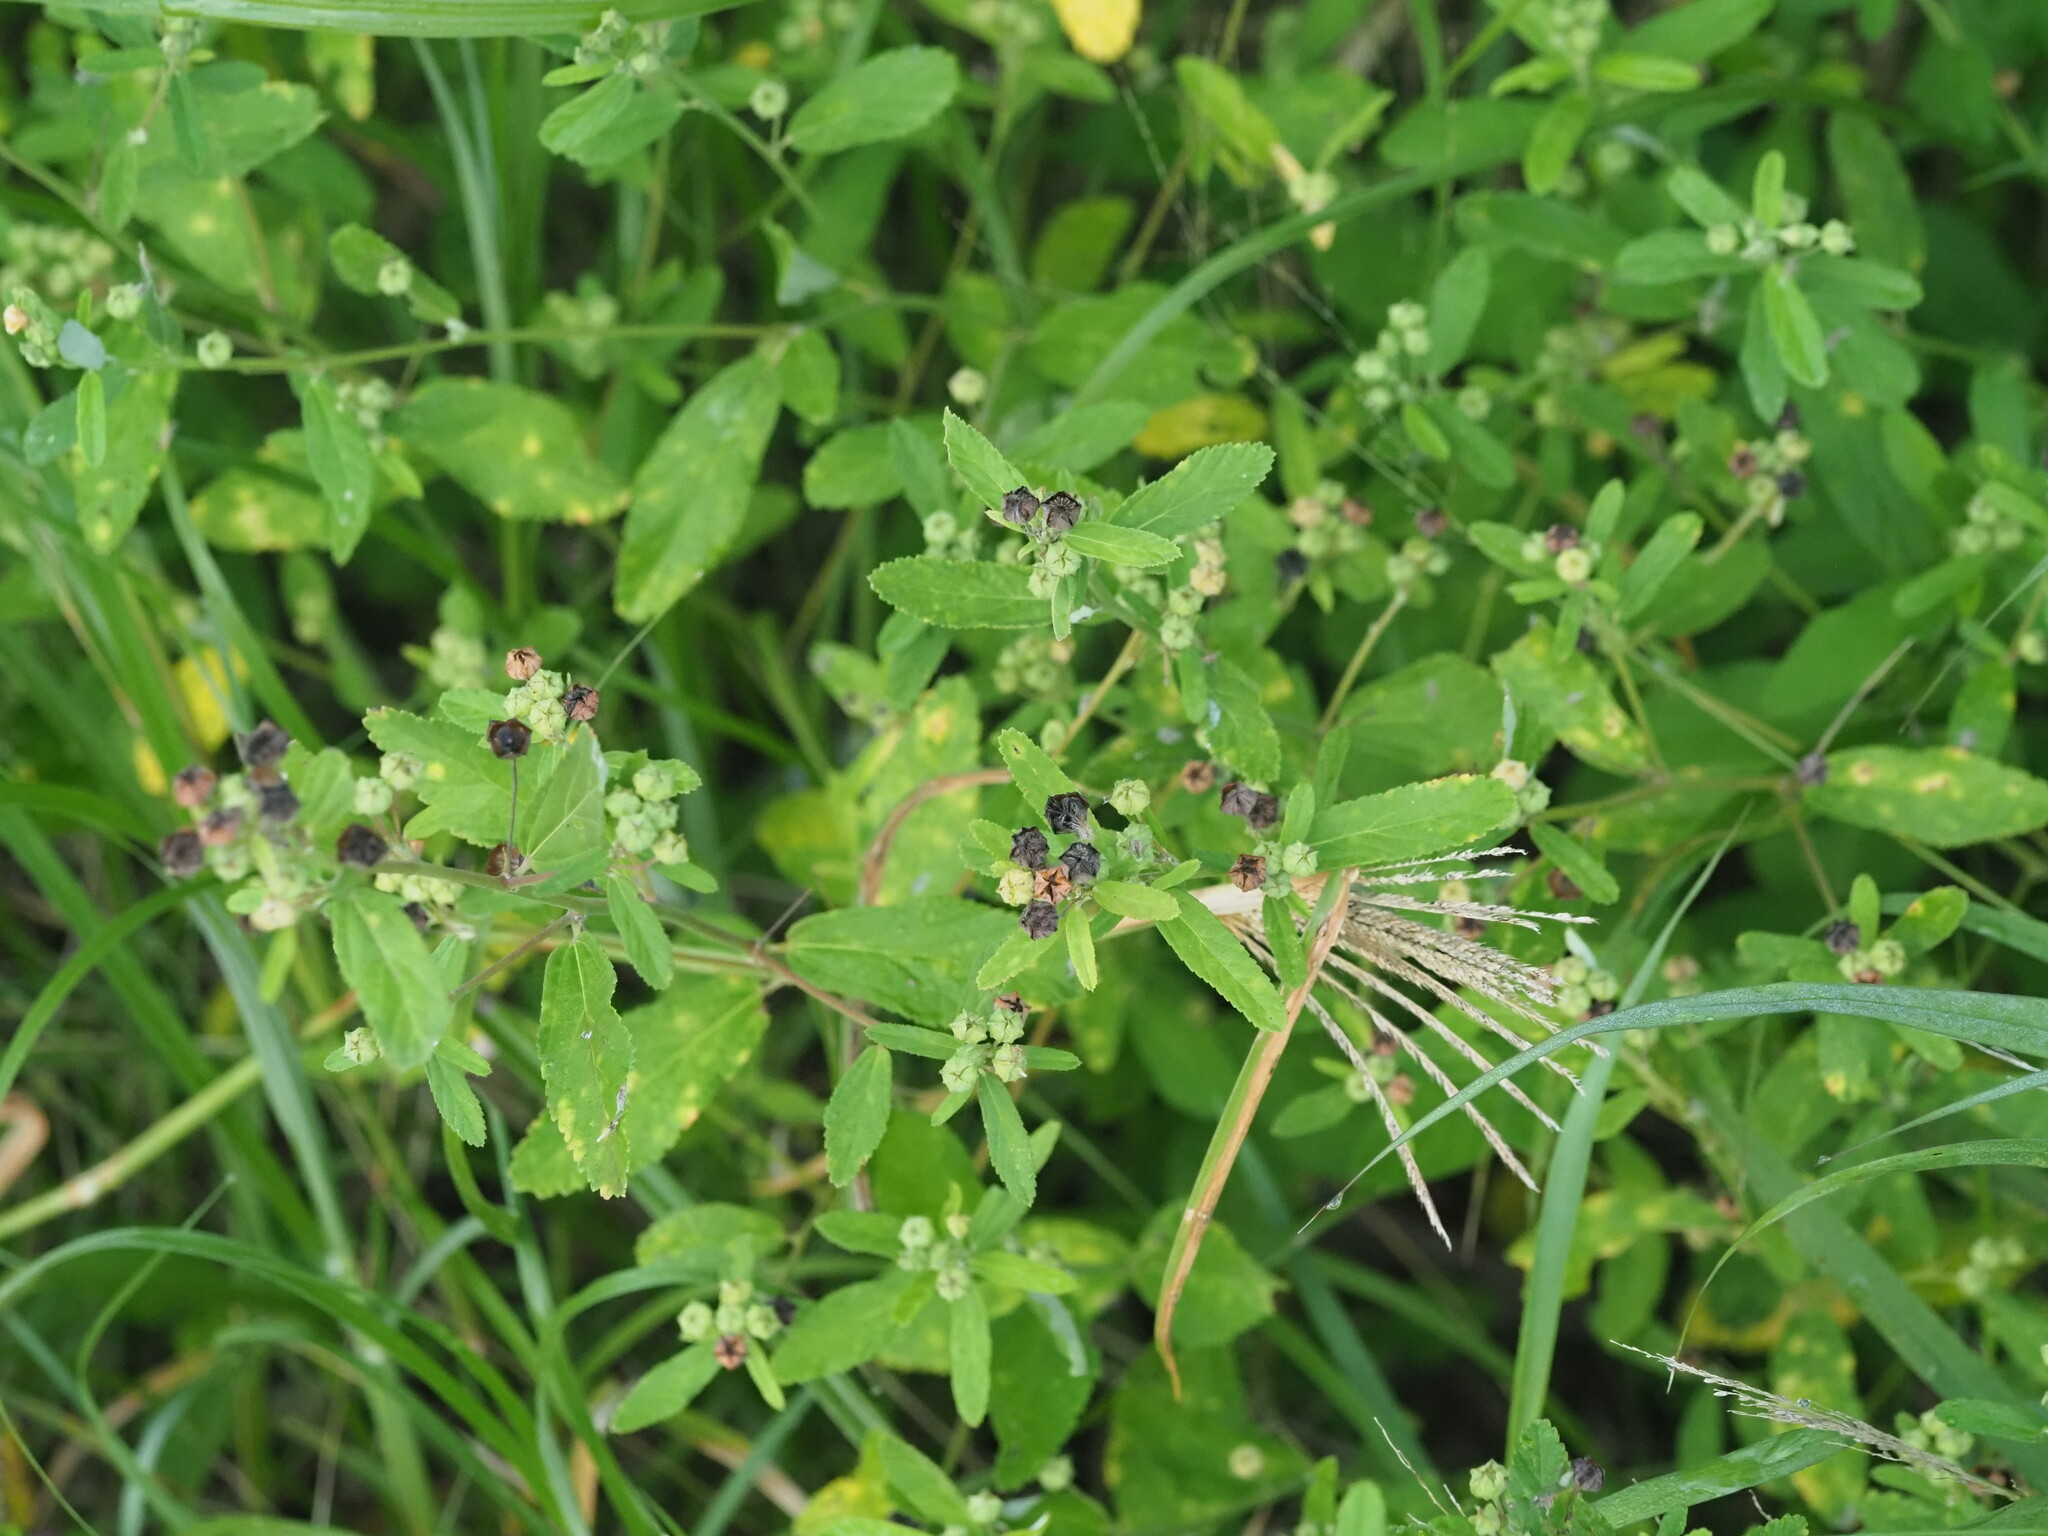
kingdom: Plantae
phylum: Tracheophyta
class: Magnoliopsida
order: Malvales
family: Malvaceae
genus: Sida
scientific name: Sida rhombifolia
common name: Queensland-hemp
